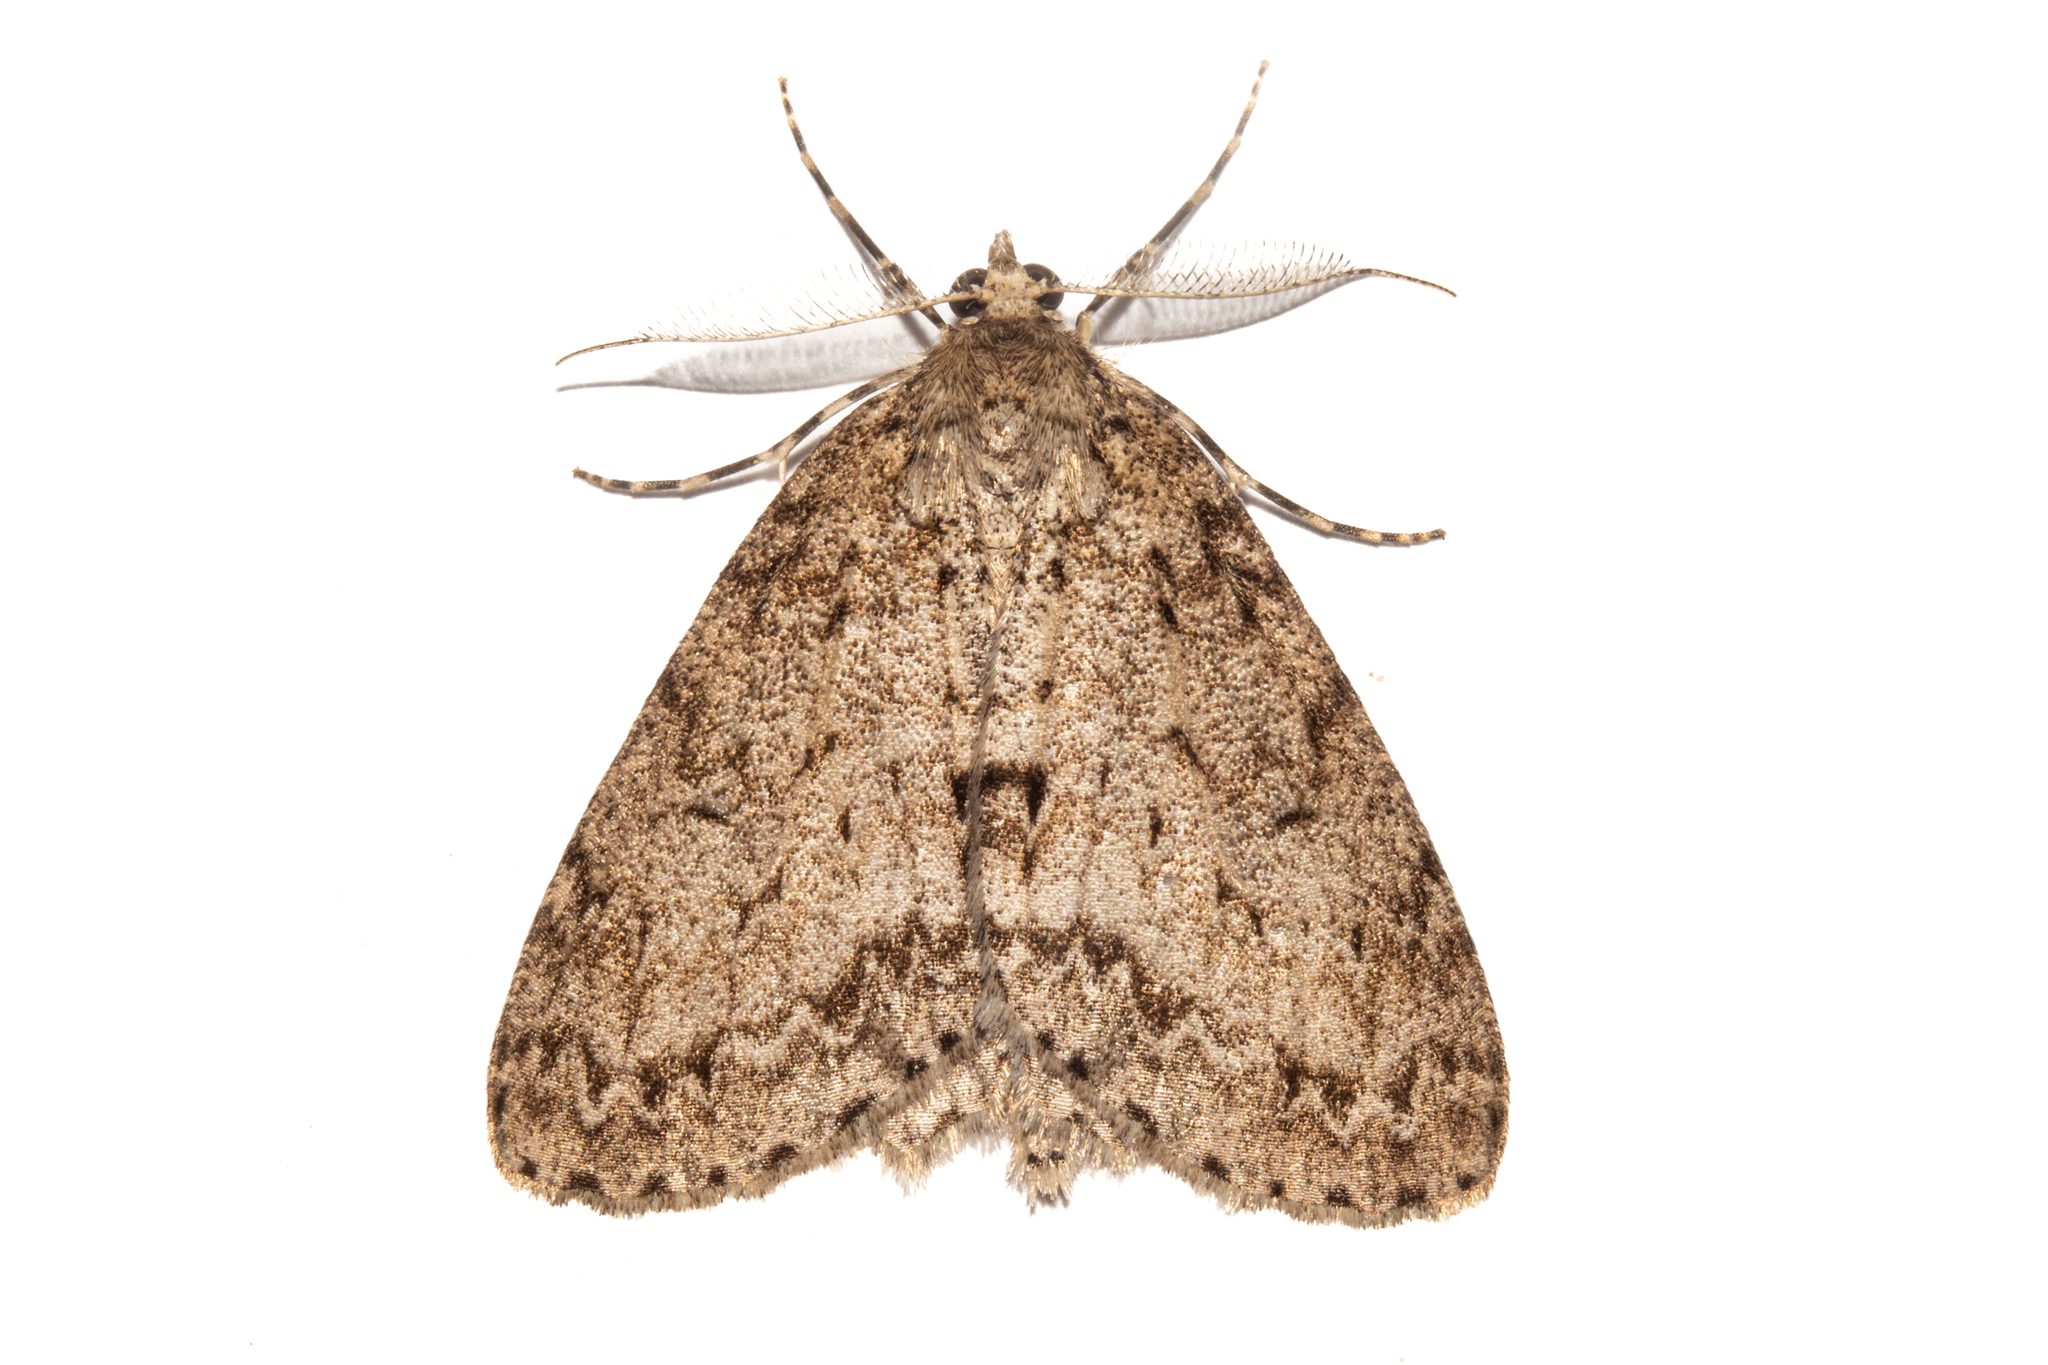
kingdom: Animalia
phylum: Arthropoda
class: Insecta
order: Lepidoptera
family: Geometridae
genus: Pseudocoremia
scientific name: Pseudocoremia fenerata
